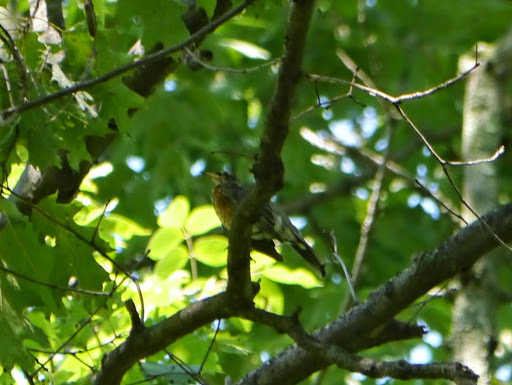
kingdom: Animalia
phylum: Chordata
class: Aves
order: Passeriformes
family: Turdidae
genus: Turdus
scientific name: Turdus migratorius
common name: American robin
